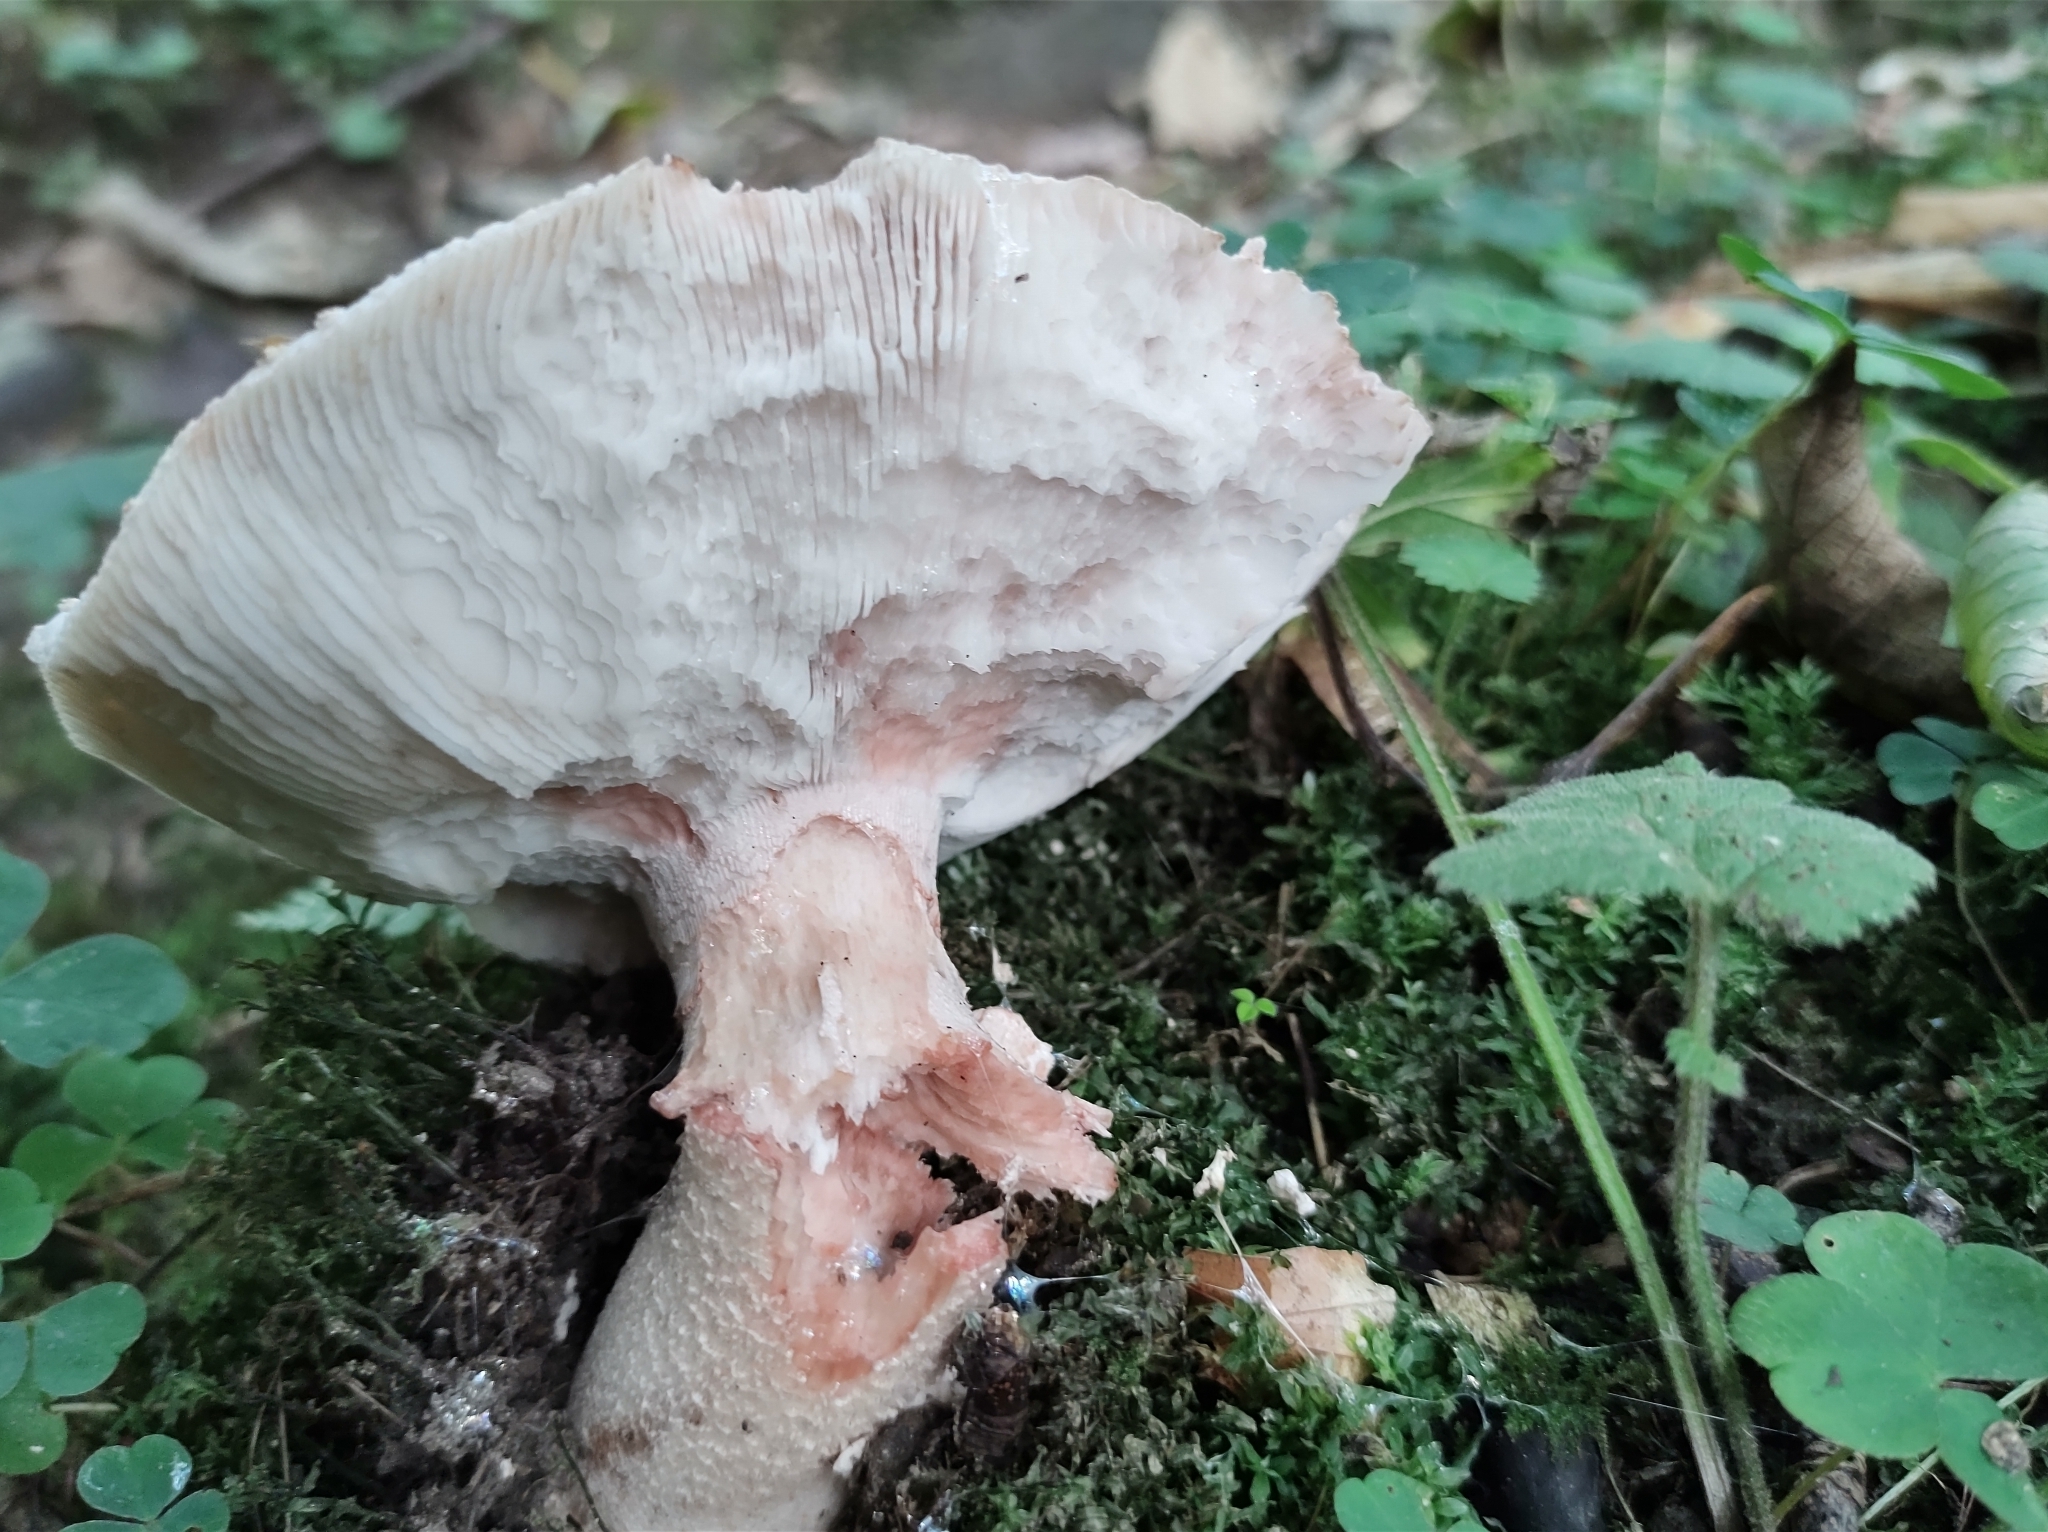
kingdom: Fungi
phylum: Basidiomycota
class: Agaricomycetes
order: Agaricales
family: Amanitaceae
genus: Amanita
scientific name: Amanita rubescens
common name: Blusher
